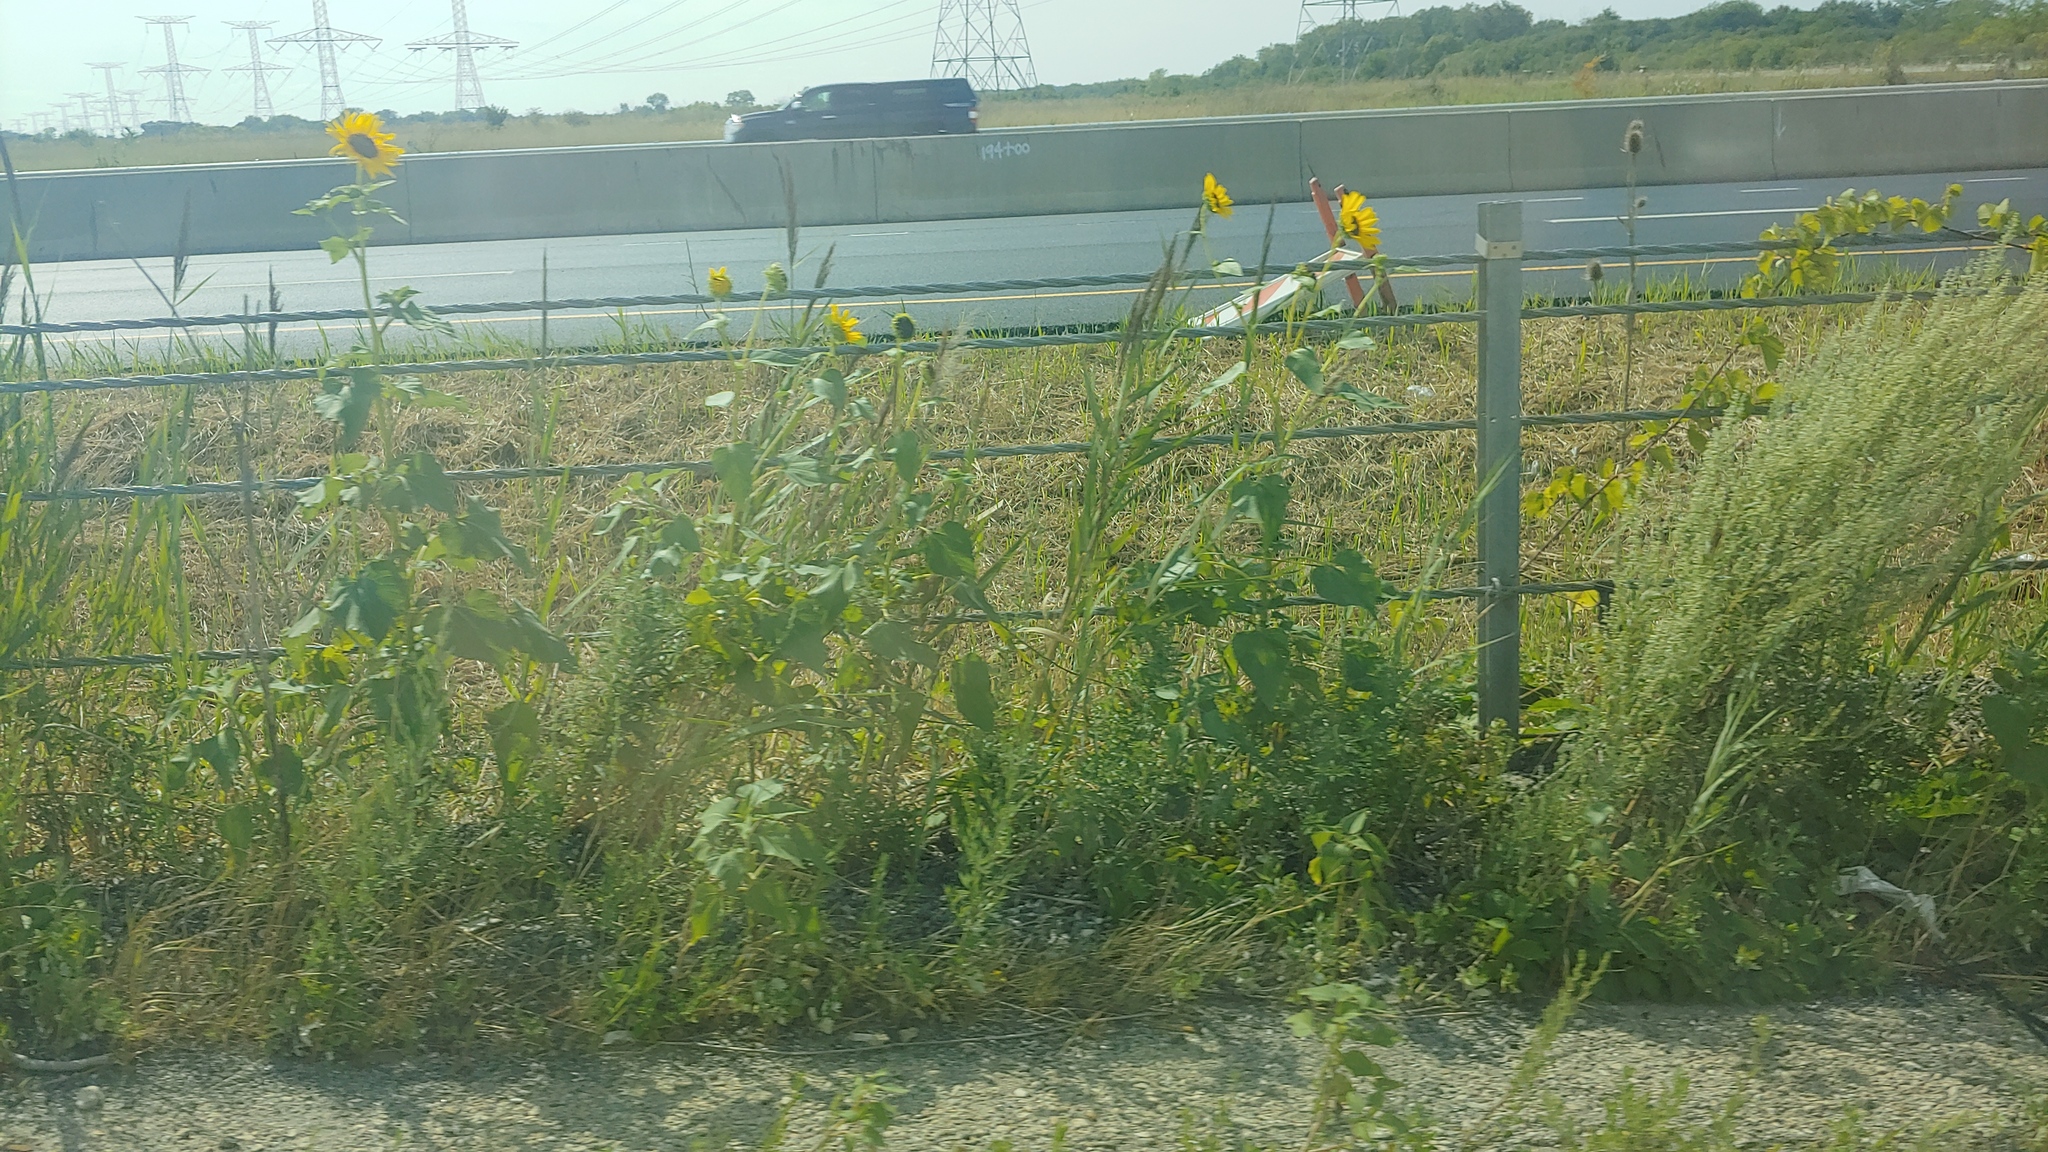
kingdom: Plantae
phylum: Tracheophyta
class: Magnoliopsida
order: Asterales
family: Asteraceae
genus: Helianthus
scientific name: Helianthus annuus
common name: Sunflower
